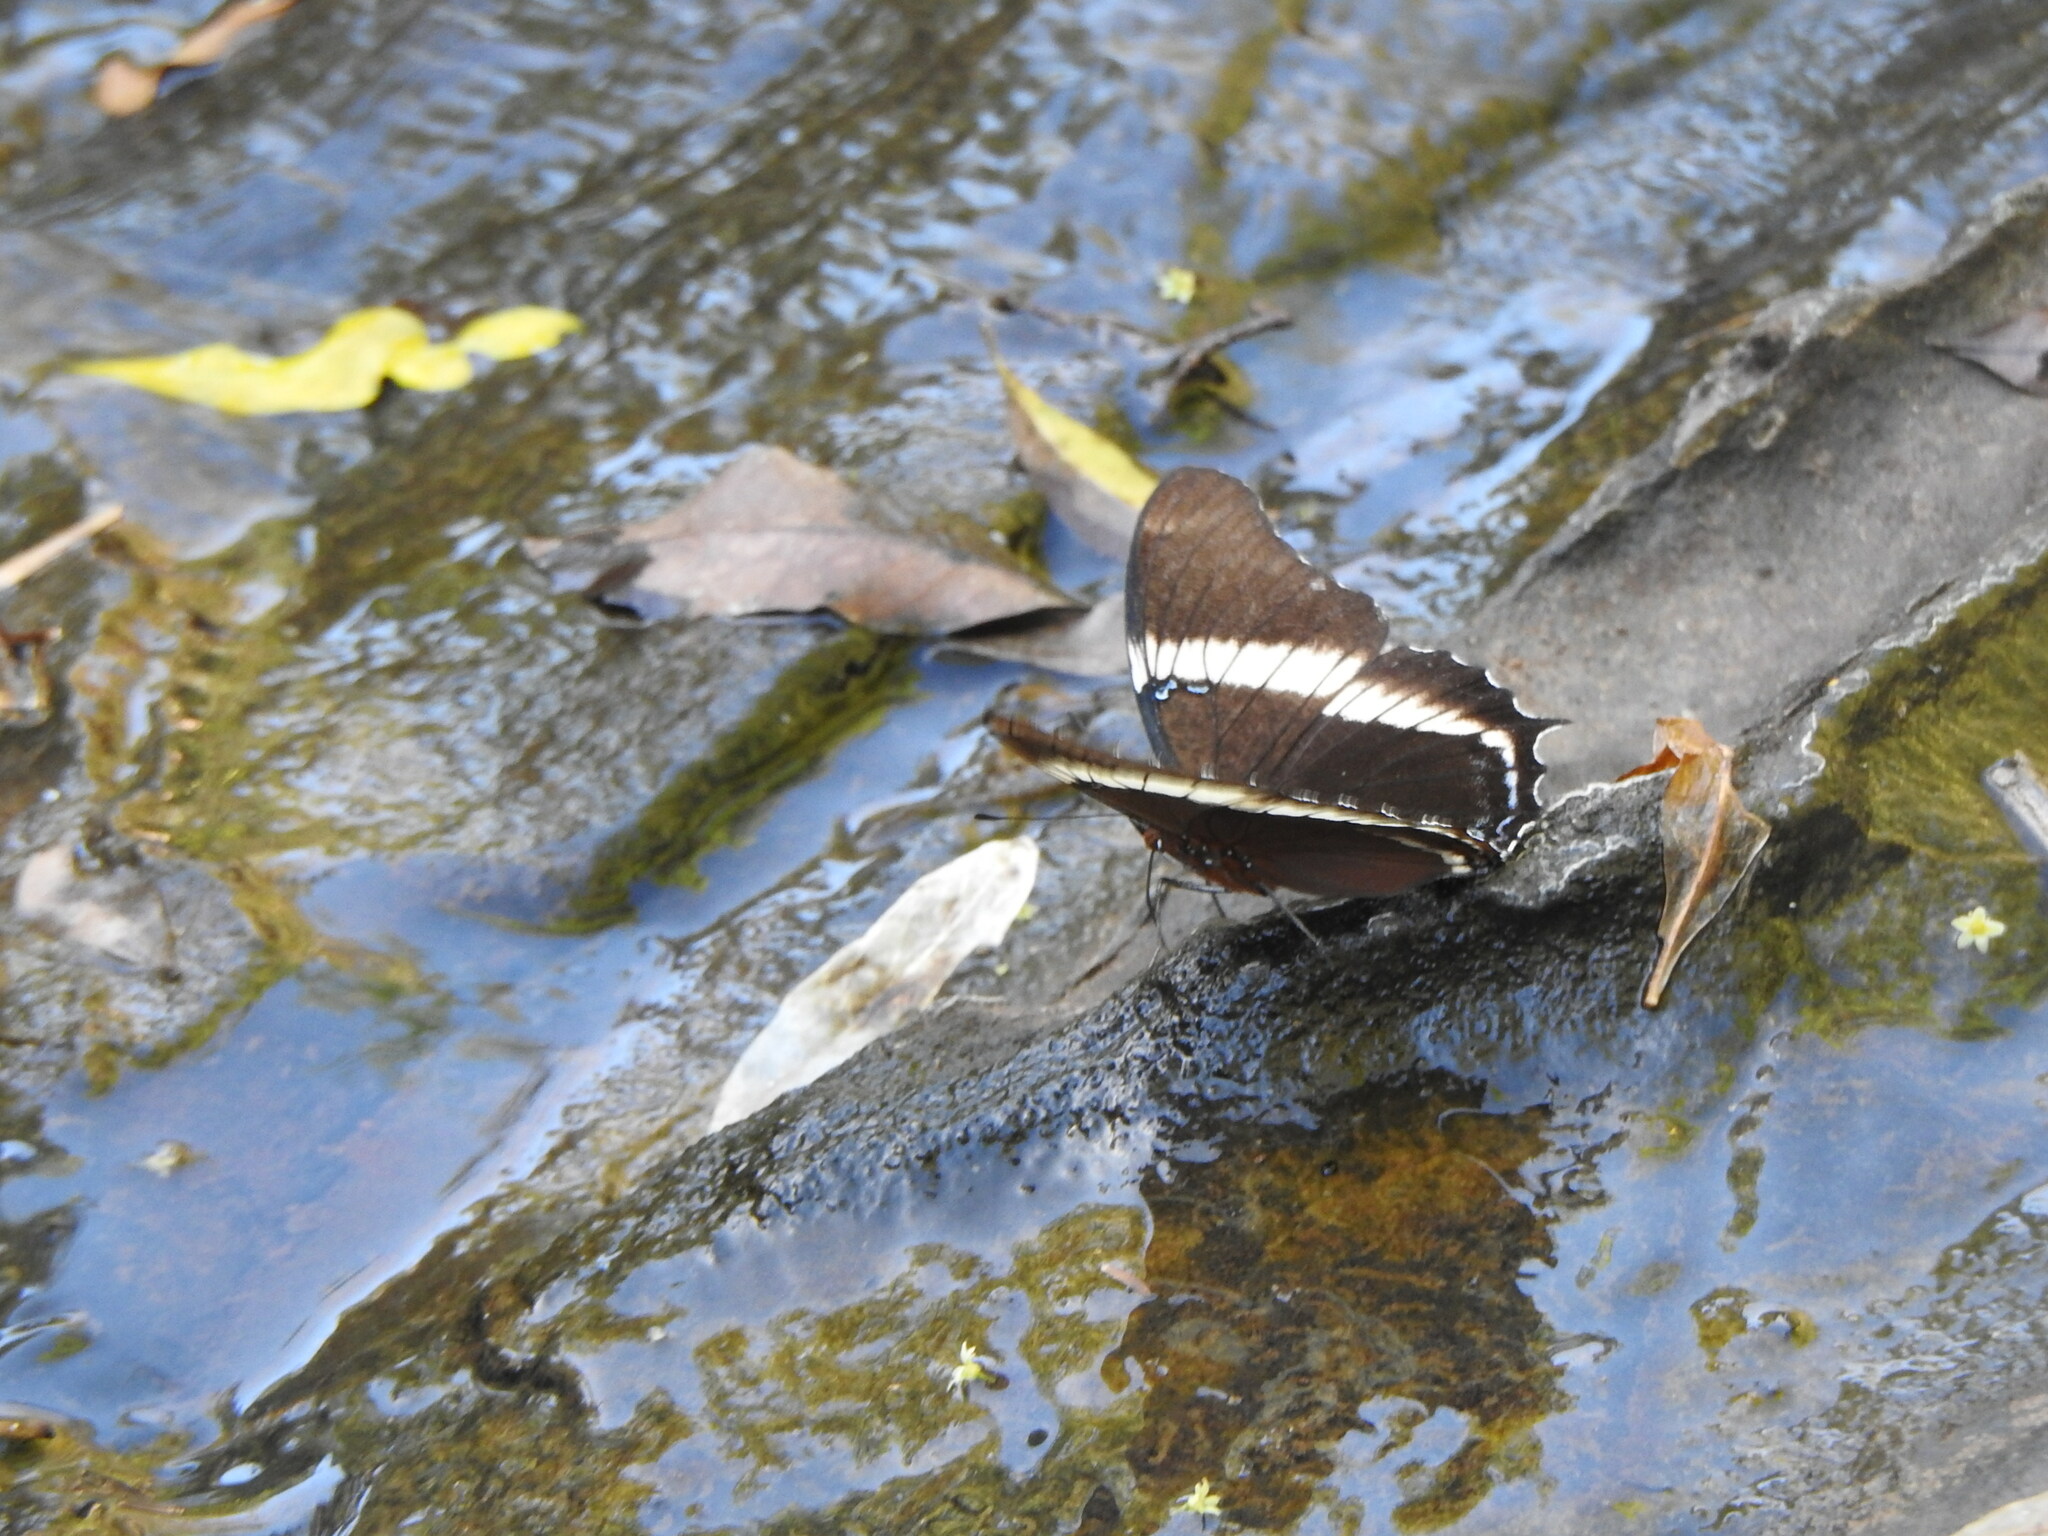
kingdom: Animalia
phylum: Arthropoda
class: Insecta
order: Lepidoptera
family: Nymphalidae
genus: Siproeta
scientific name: Siproeta epaphus
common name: Rusty-tipped page
